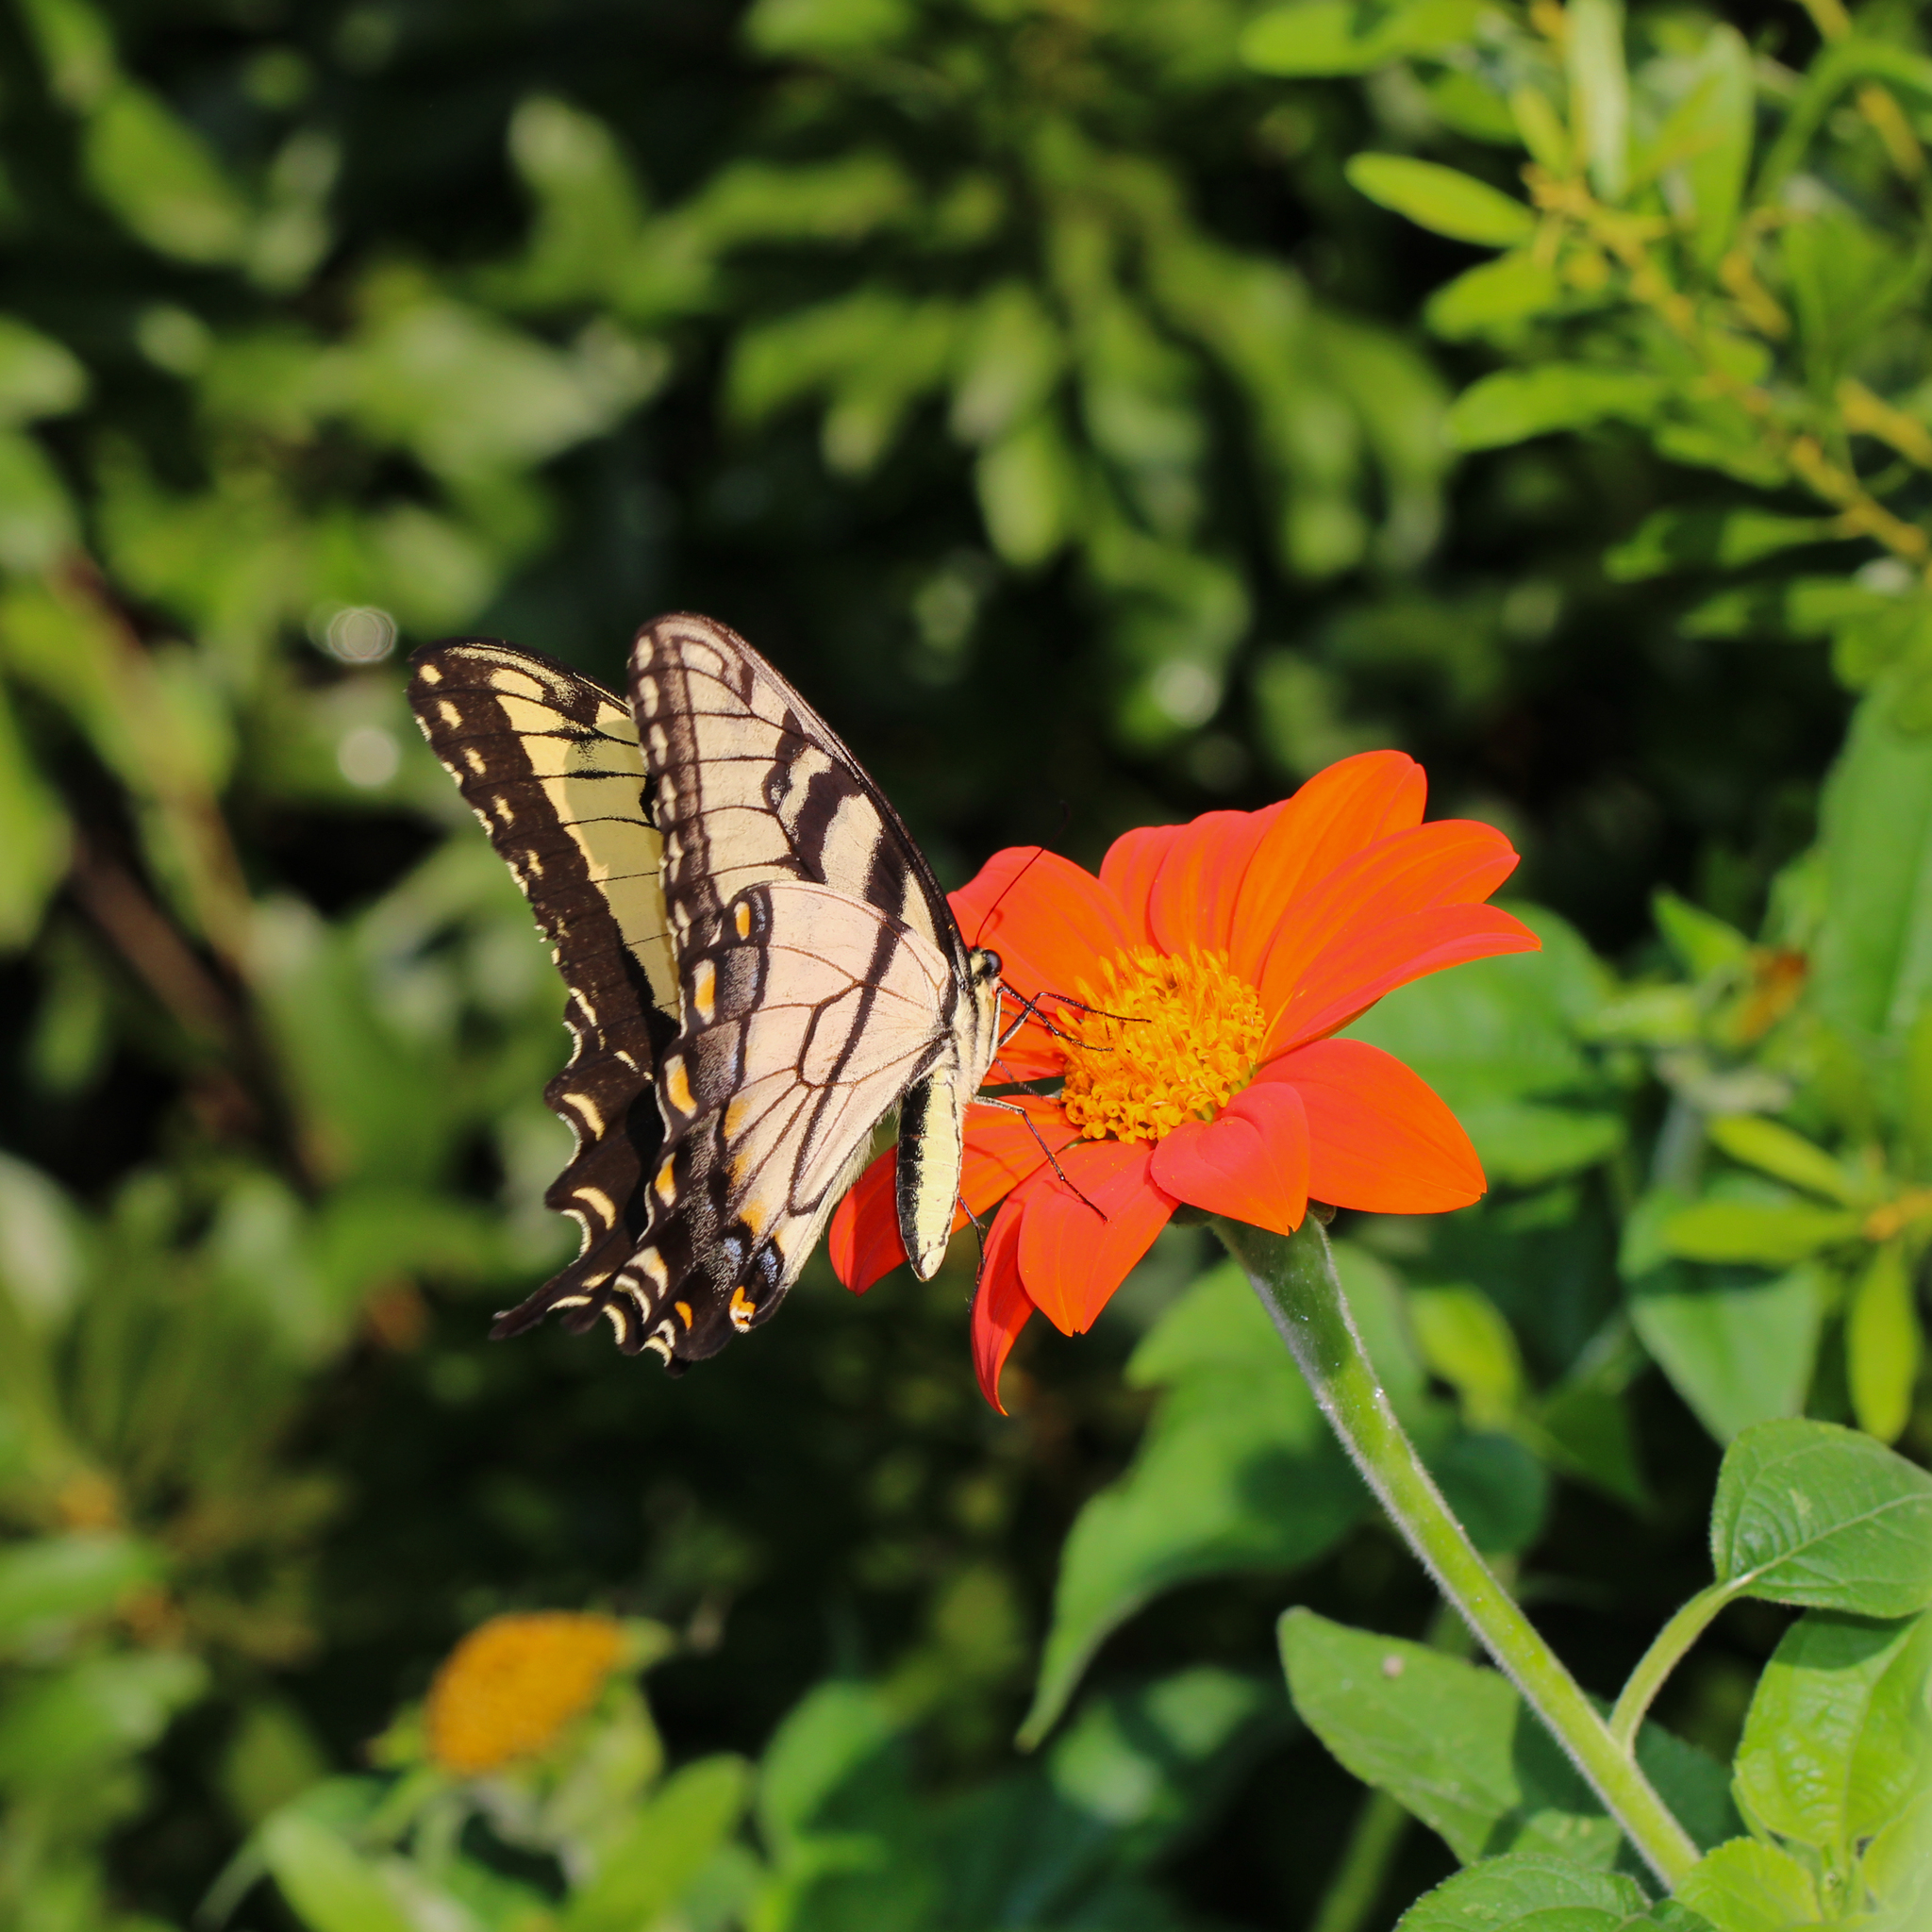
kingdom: Animalia
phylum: Arthropoda
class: Insecta
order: Lepidoptera
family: Papilionidae
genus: Papilio
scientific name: Papilio glaucus
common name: Tiger swallowtail
